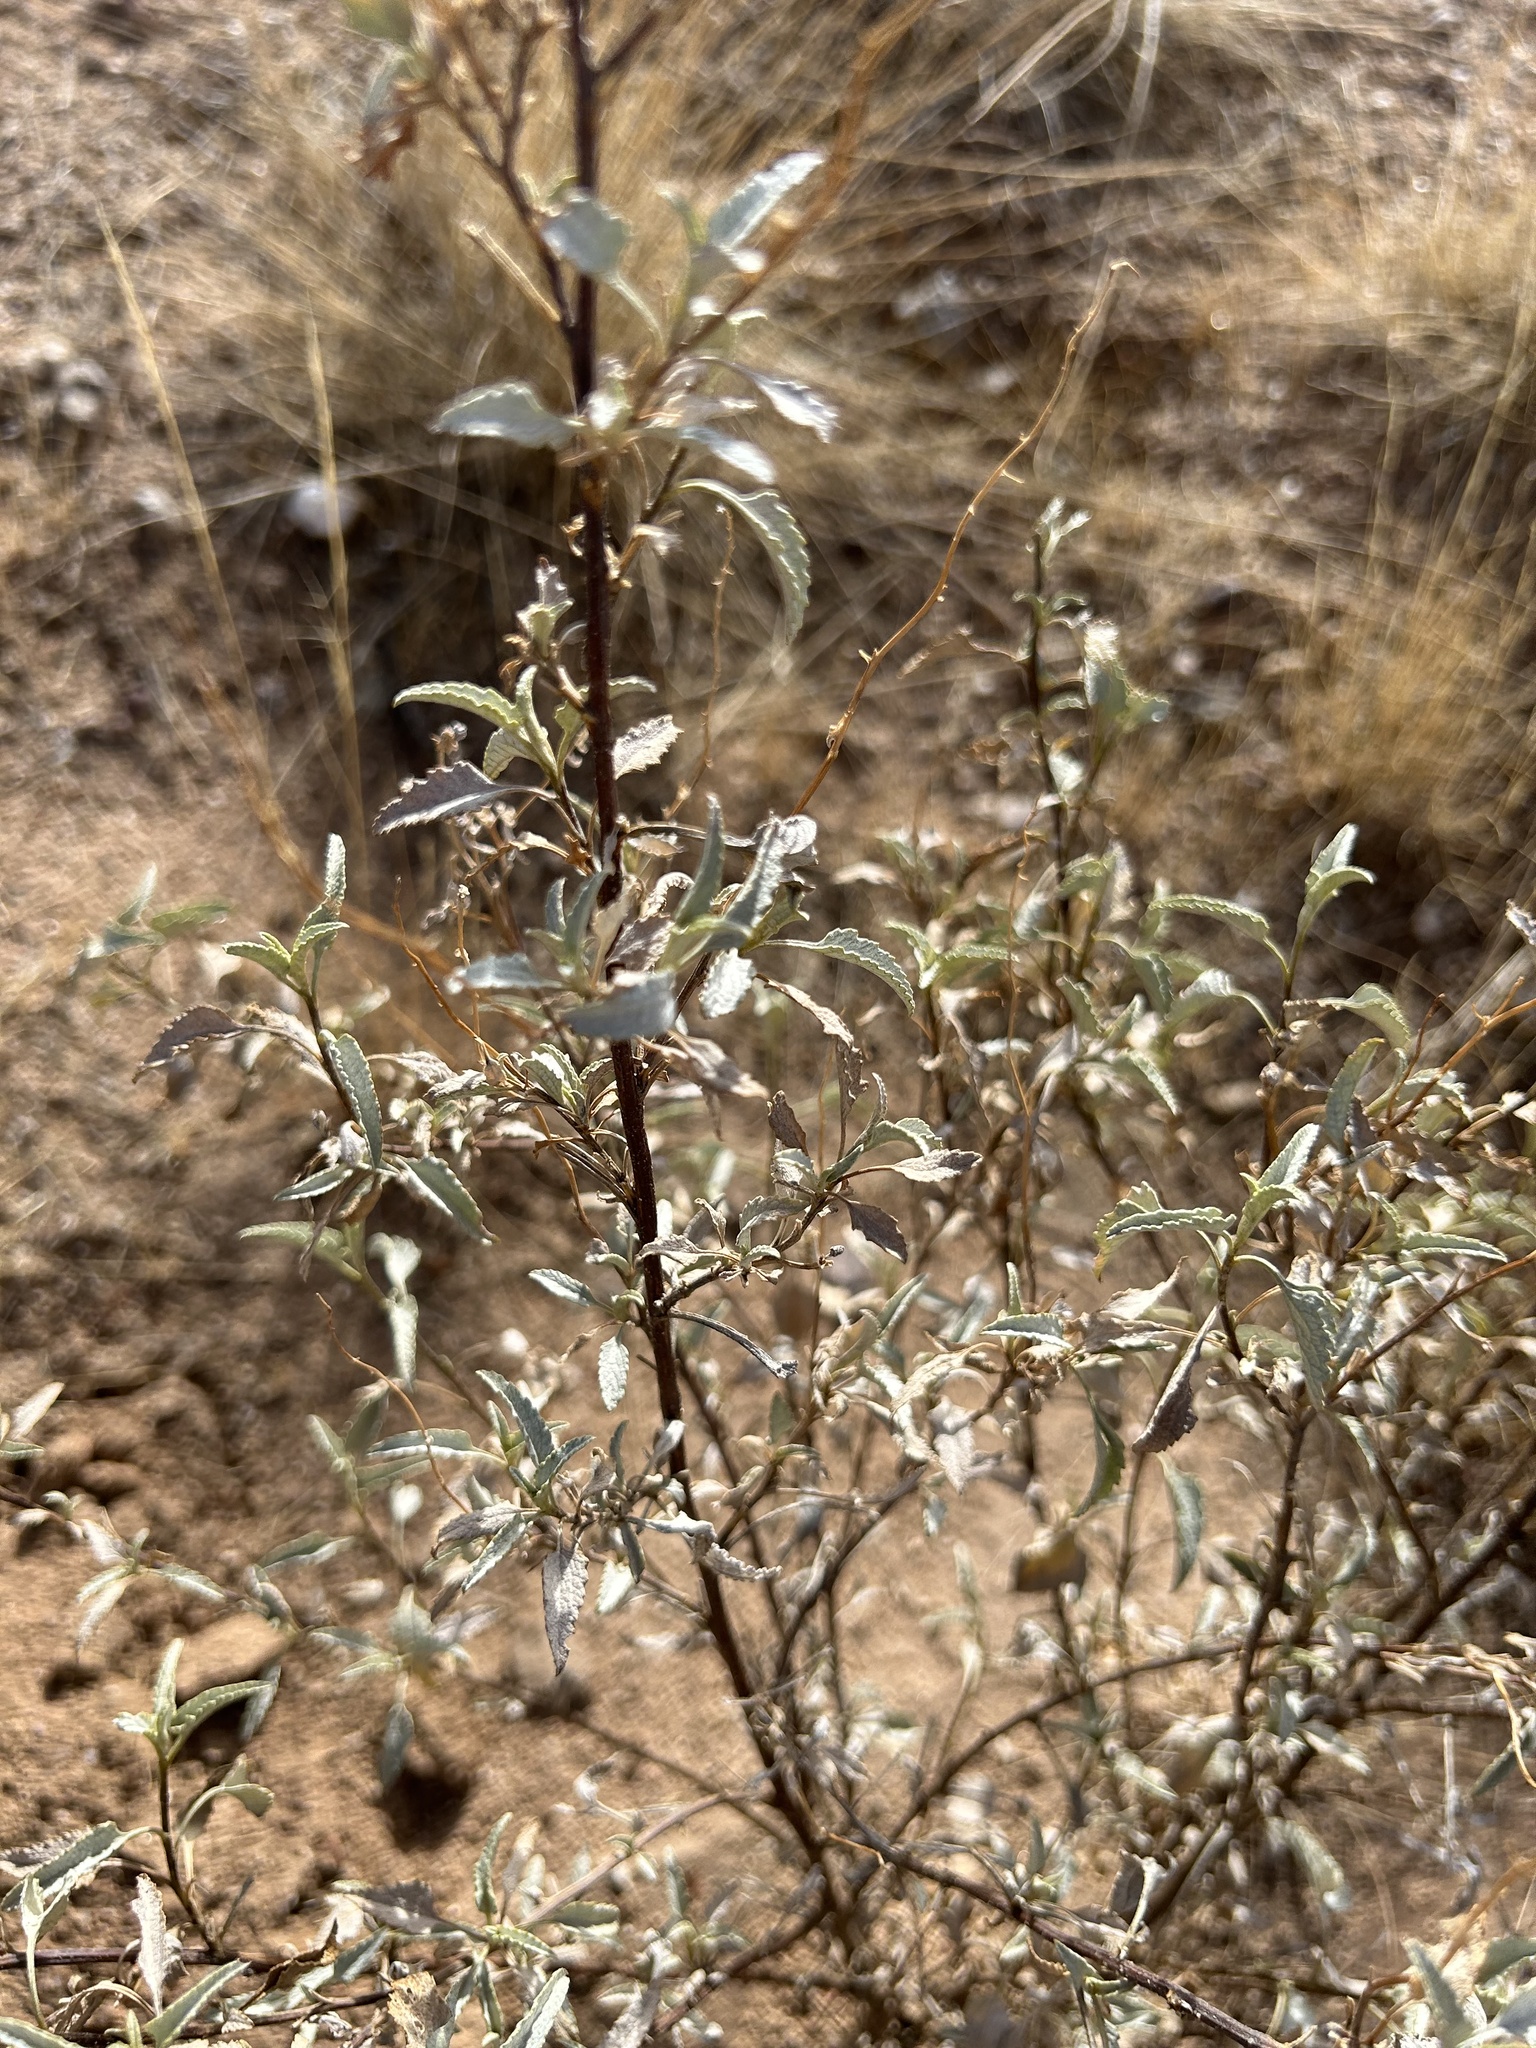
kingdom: Plantae
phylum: Tracheophyta
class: Magnoliopsida
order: Asterales
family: Asteraceae
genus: Ambrosia
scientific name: Ambrosia deltoidea
